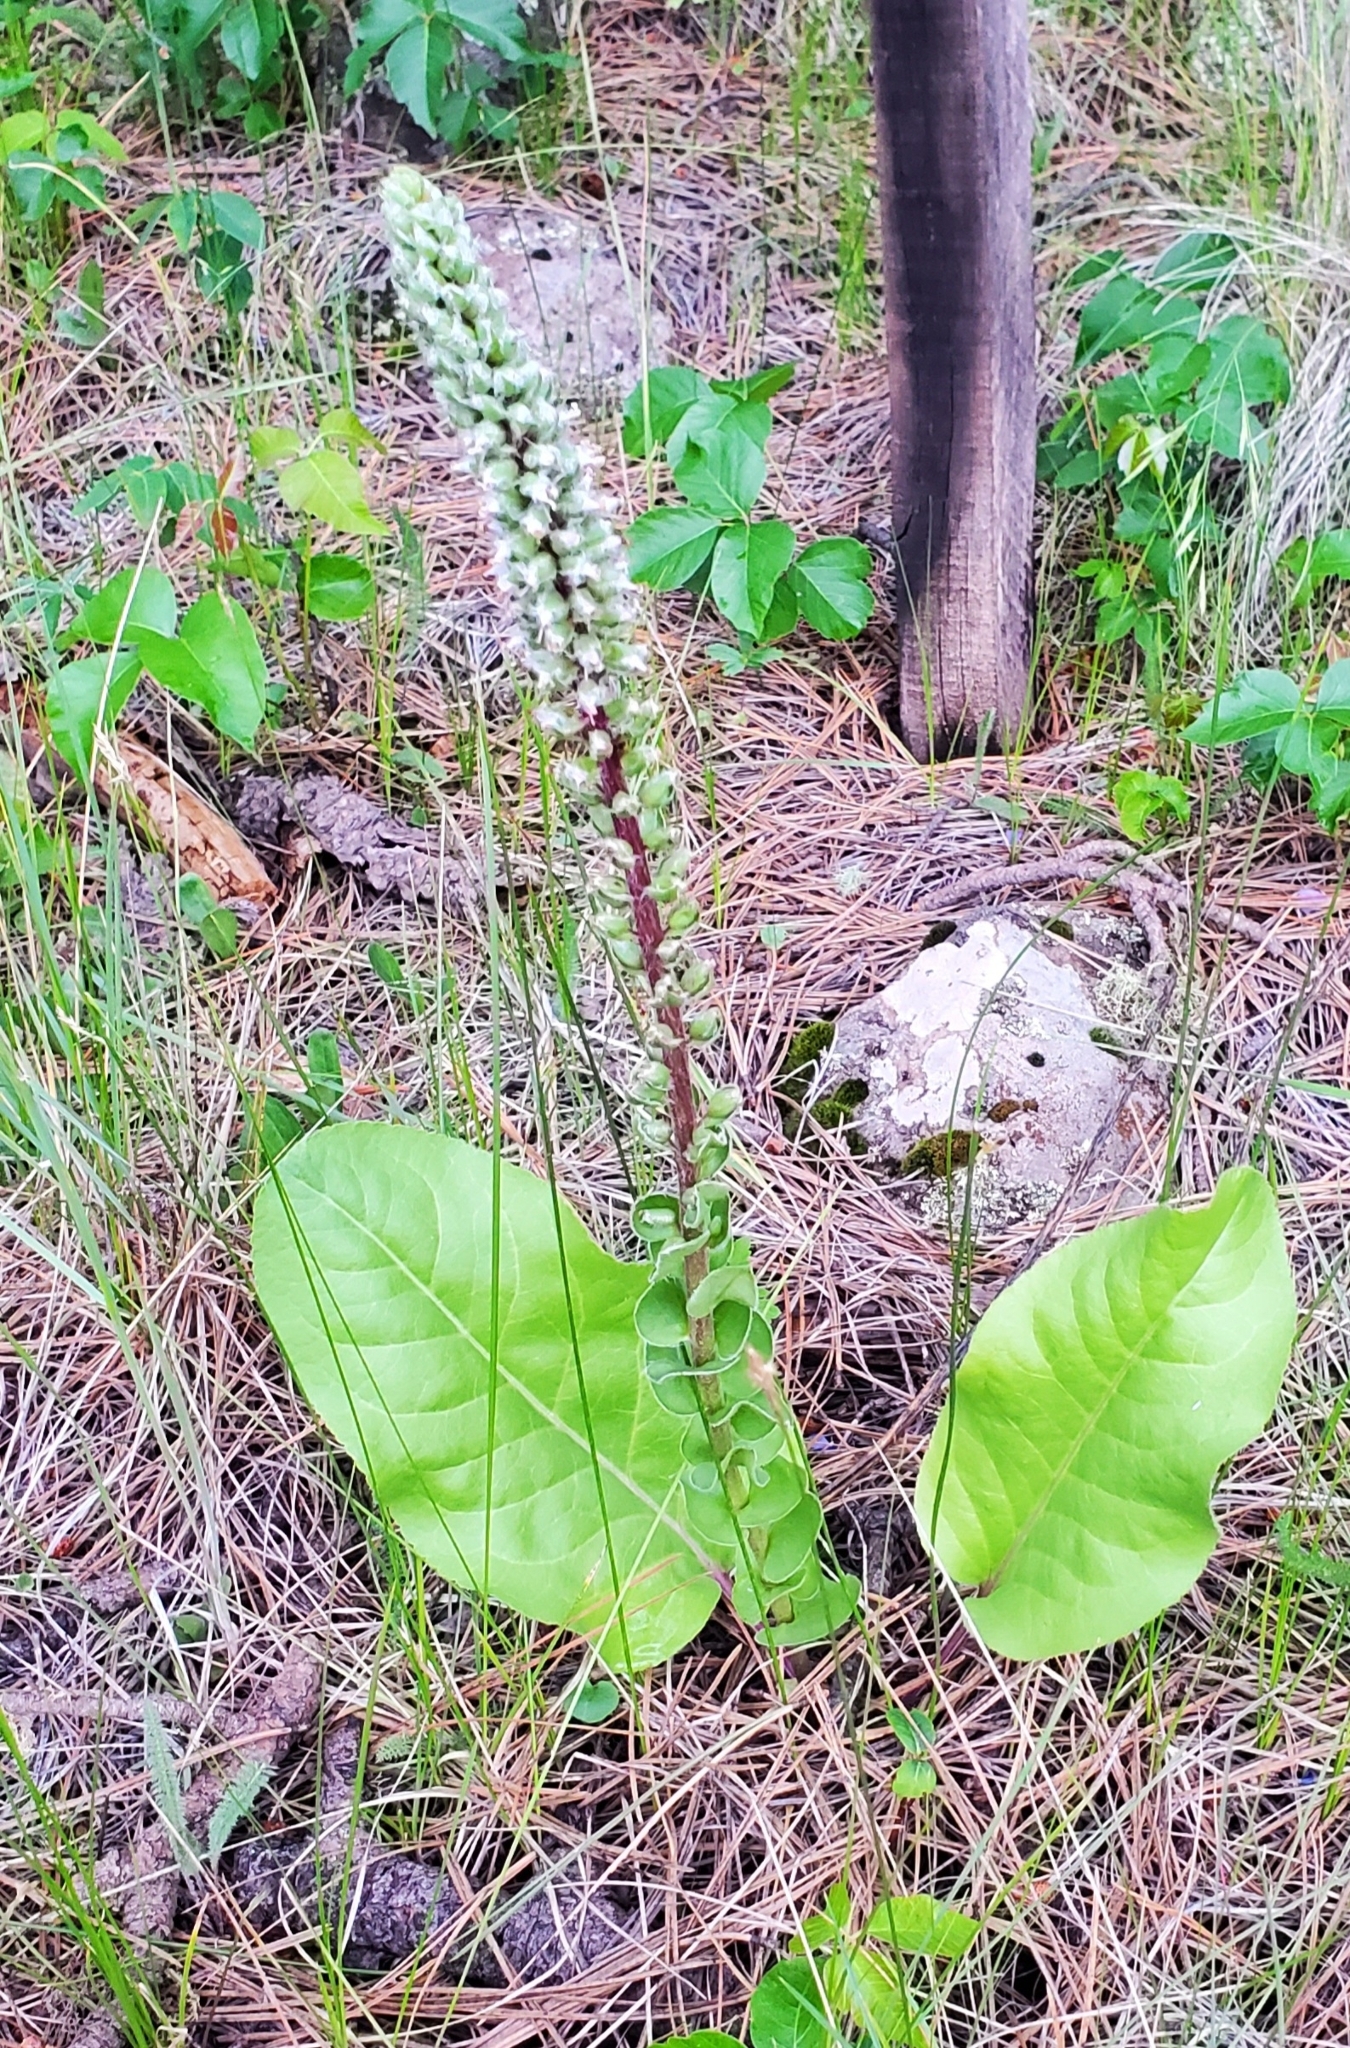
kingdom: Plantae
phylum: Tracheophyta
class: Magnoliopsida
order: Lamiales
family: Plantaginaceae
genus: Veronica
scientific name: Veronica plantaginea
